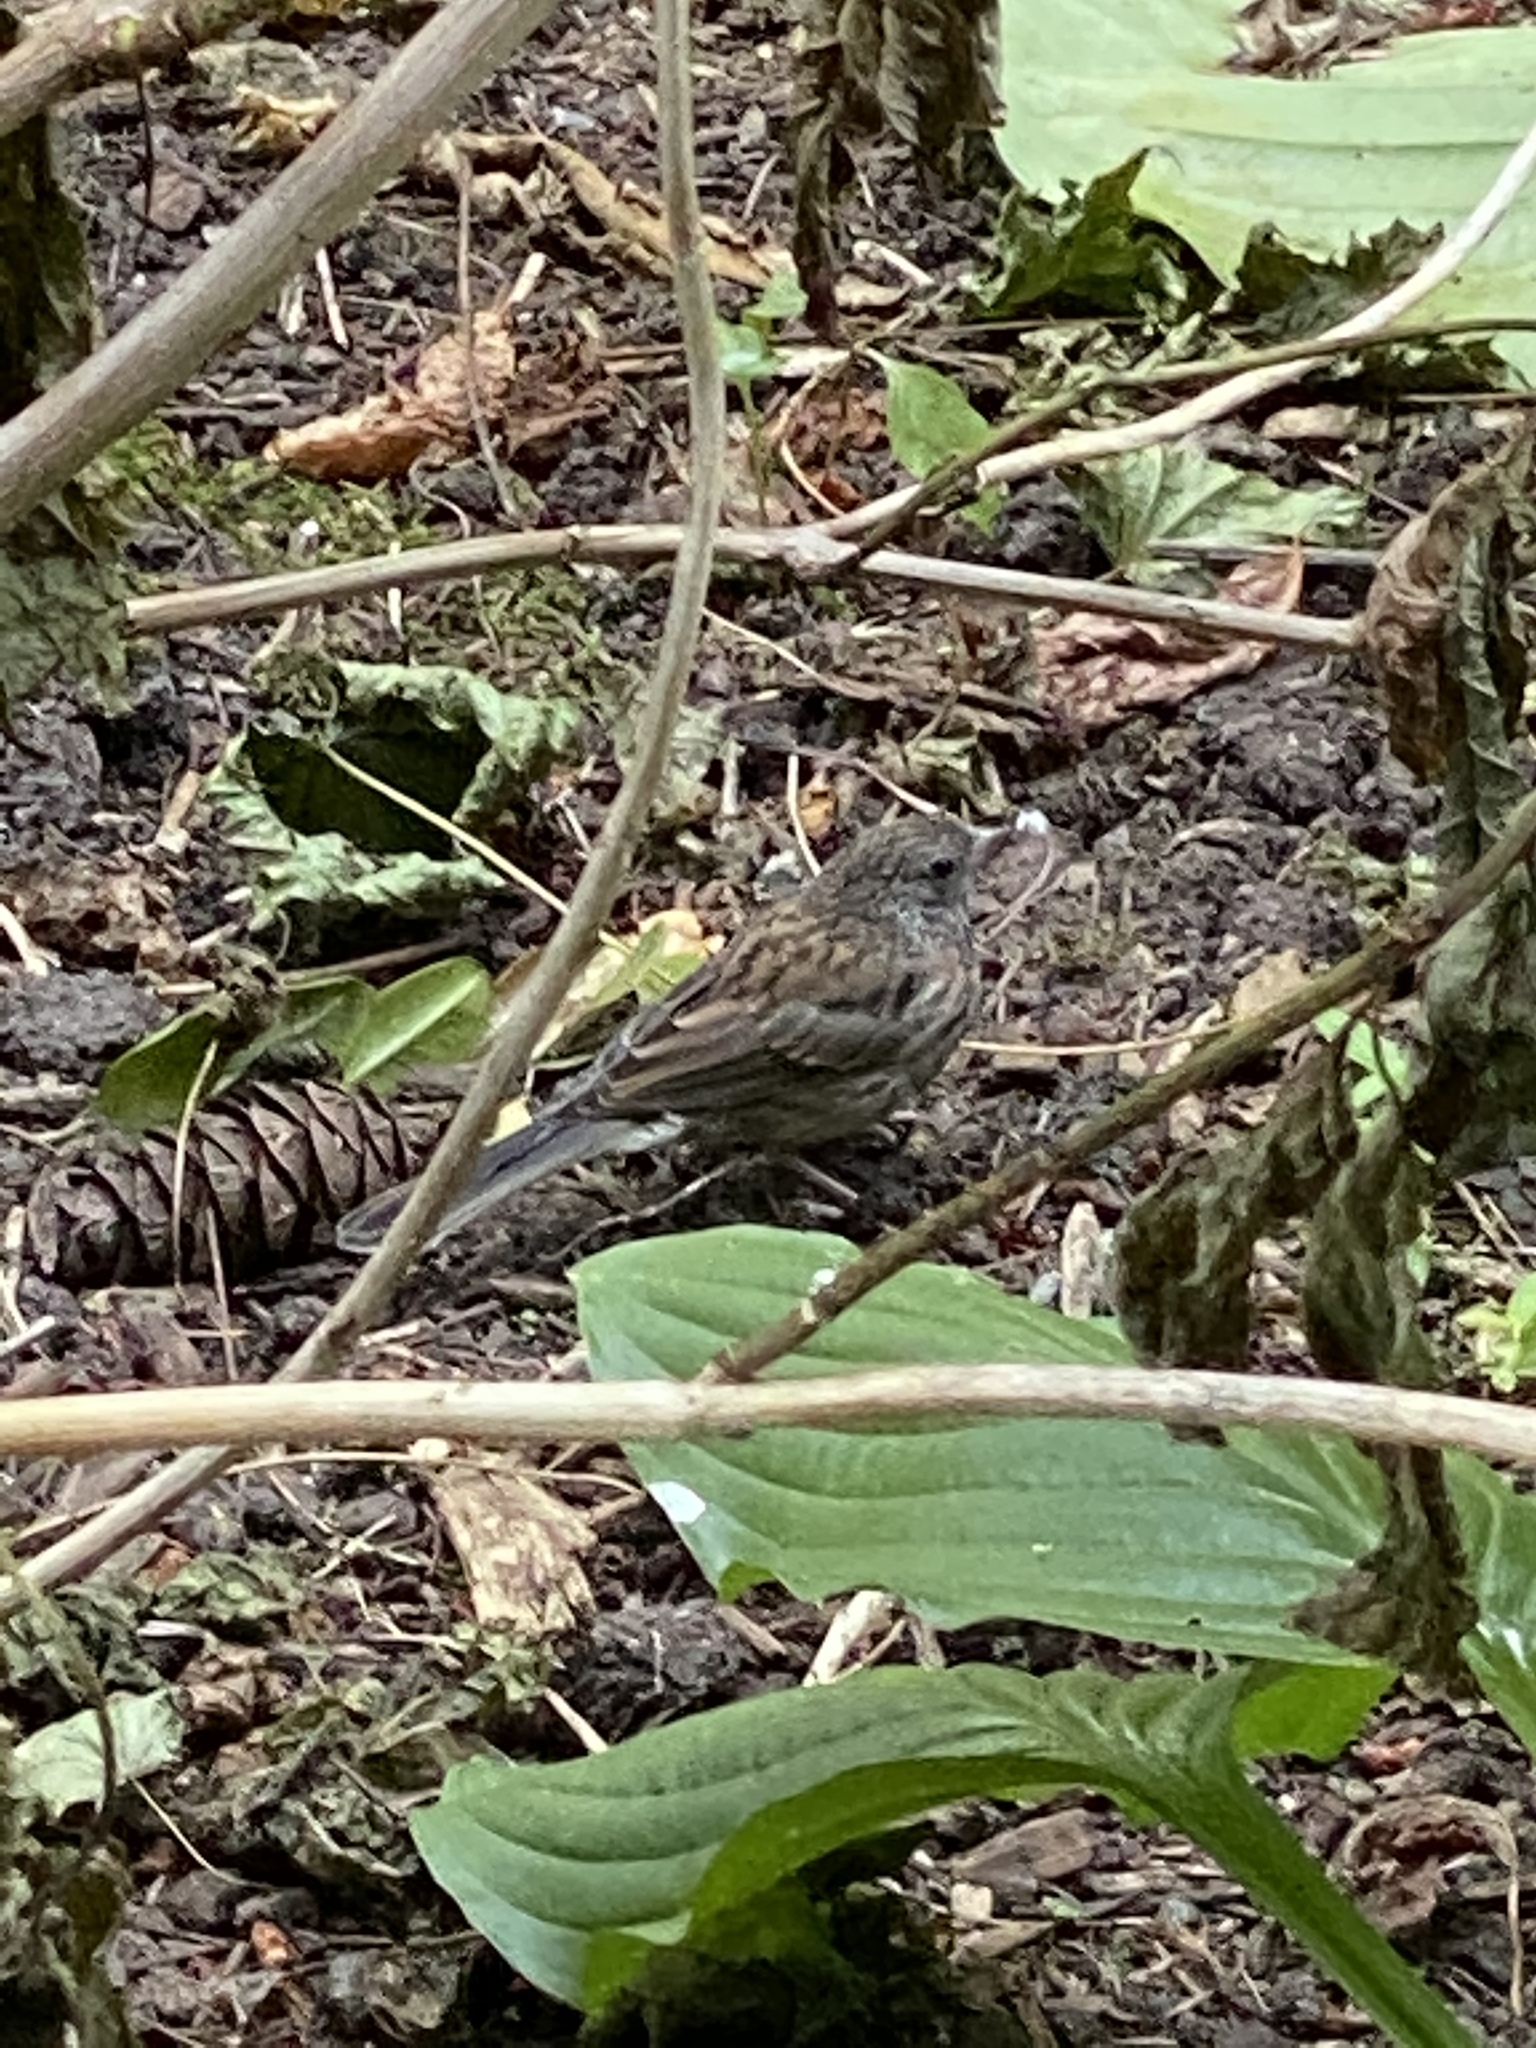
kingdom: Animalia
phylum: Chordata
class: Aves
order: Passeriformes
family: Passerellidae
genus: Junco
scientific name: Junco hyemalis
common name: Dark-eyed junco
